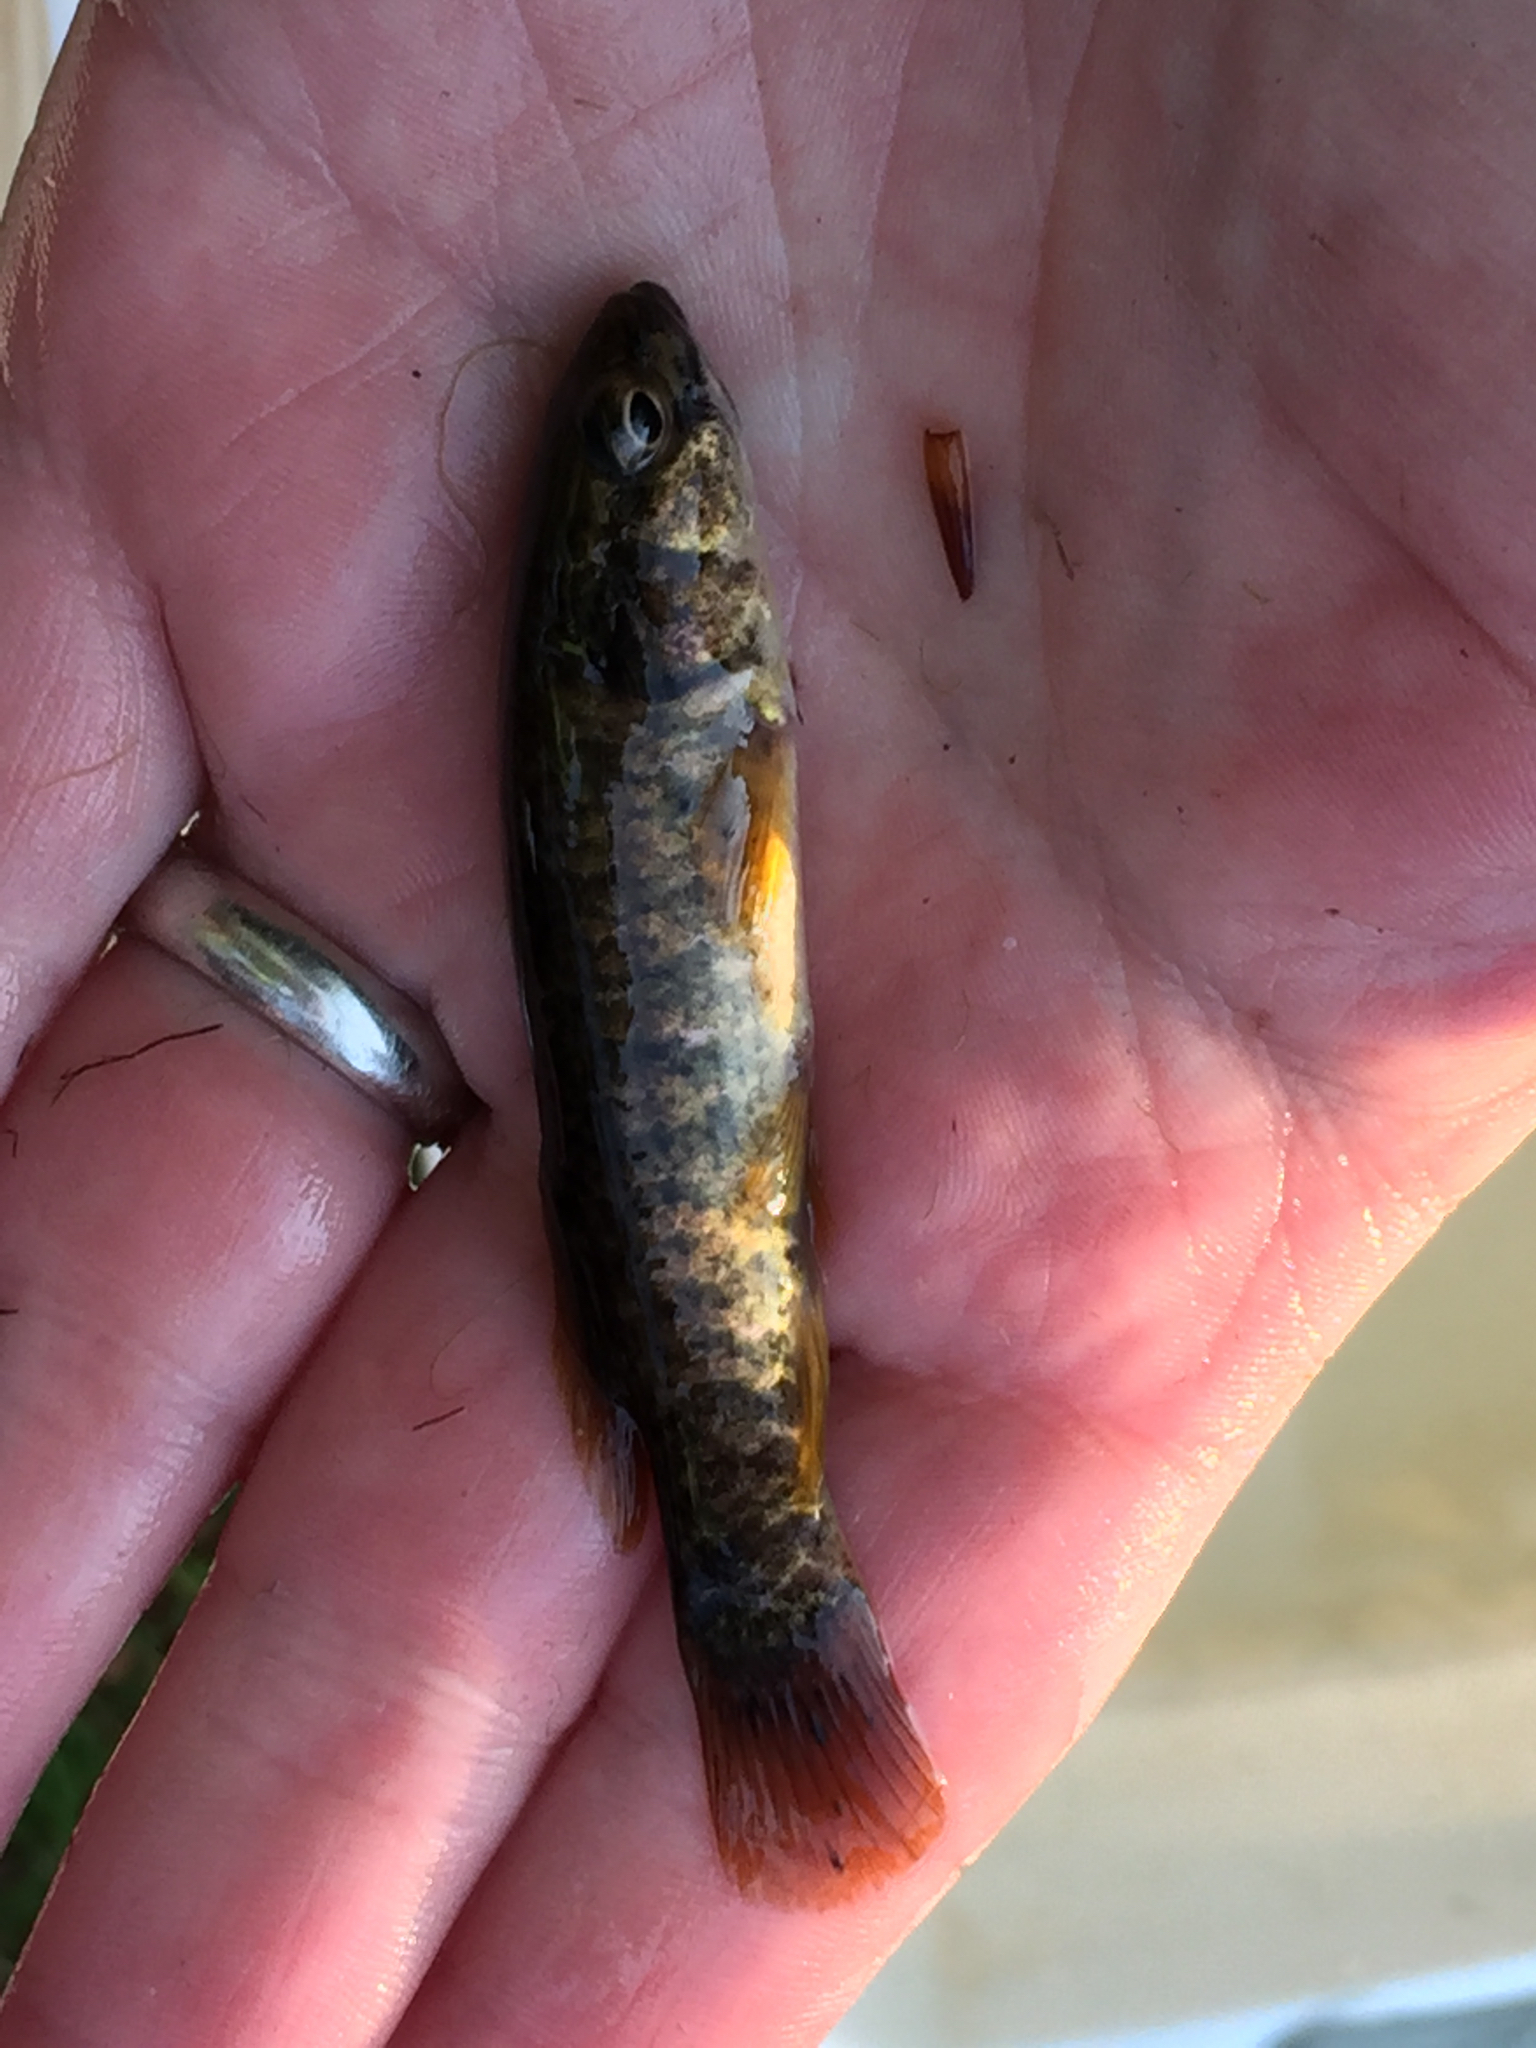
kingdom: Animalia
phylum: Chordata
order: Esociformes
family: Umbridae
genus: Umbra
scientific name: Umbra limi
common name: Central mudminnow
